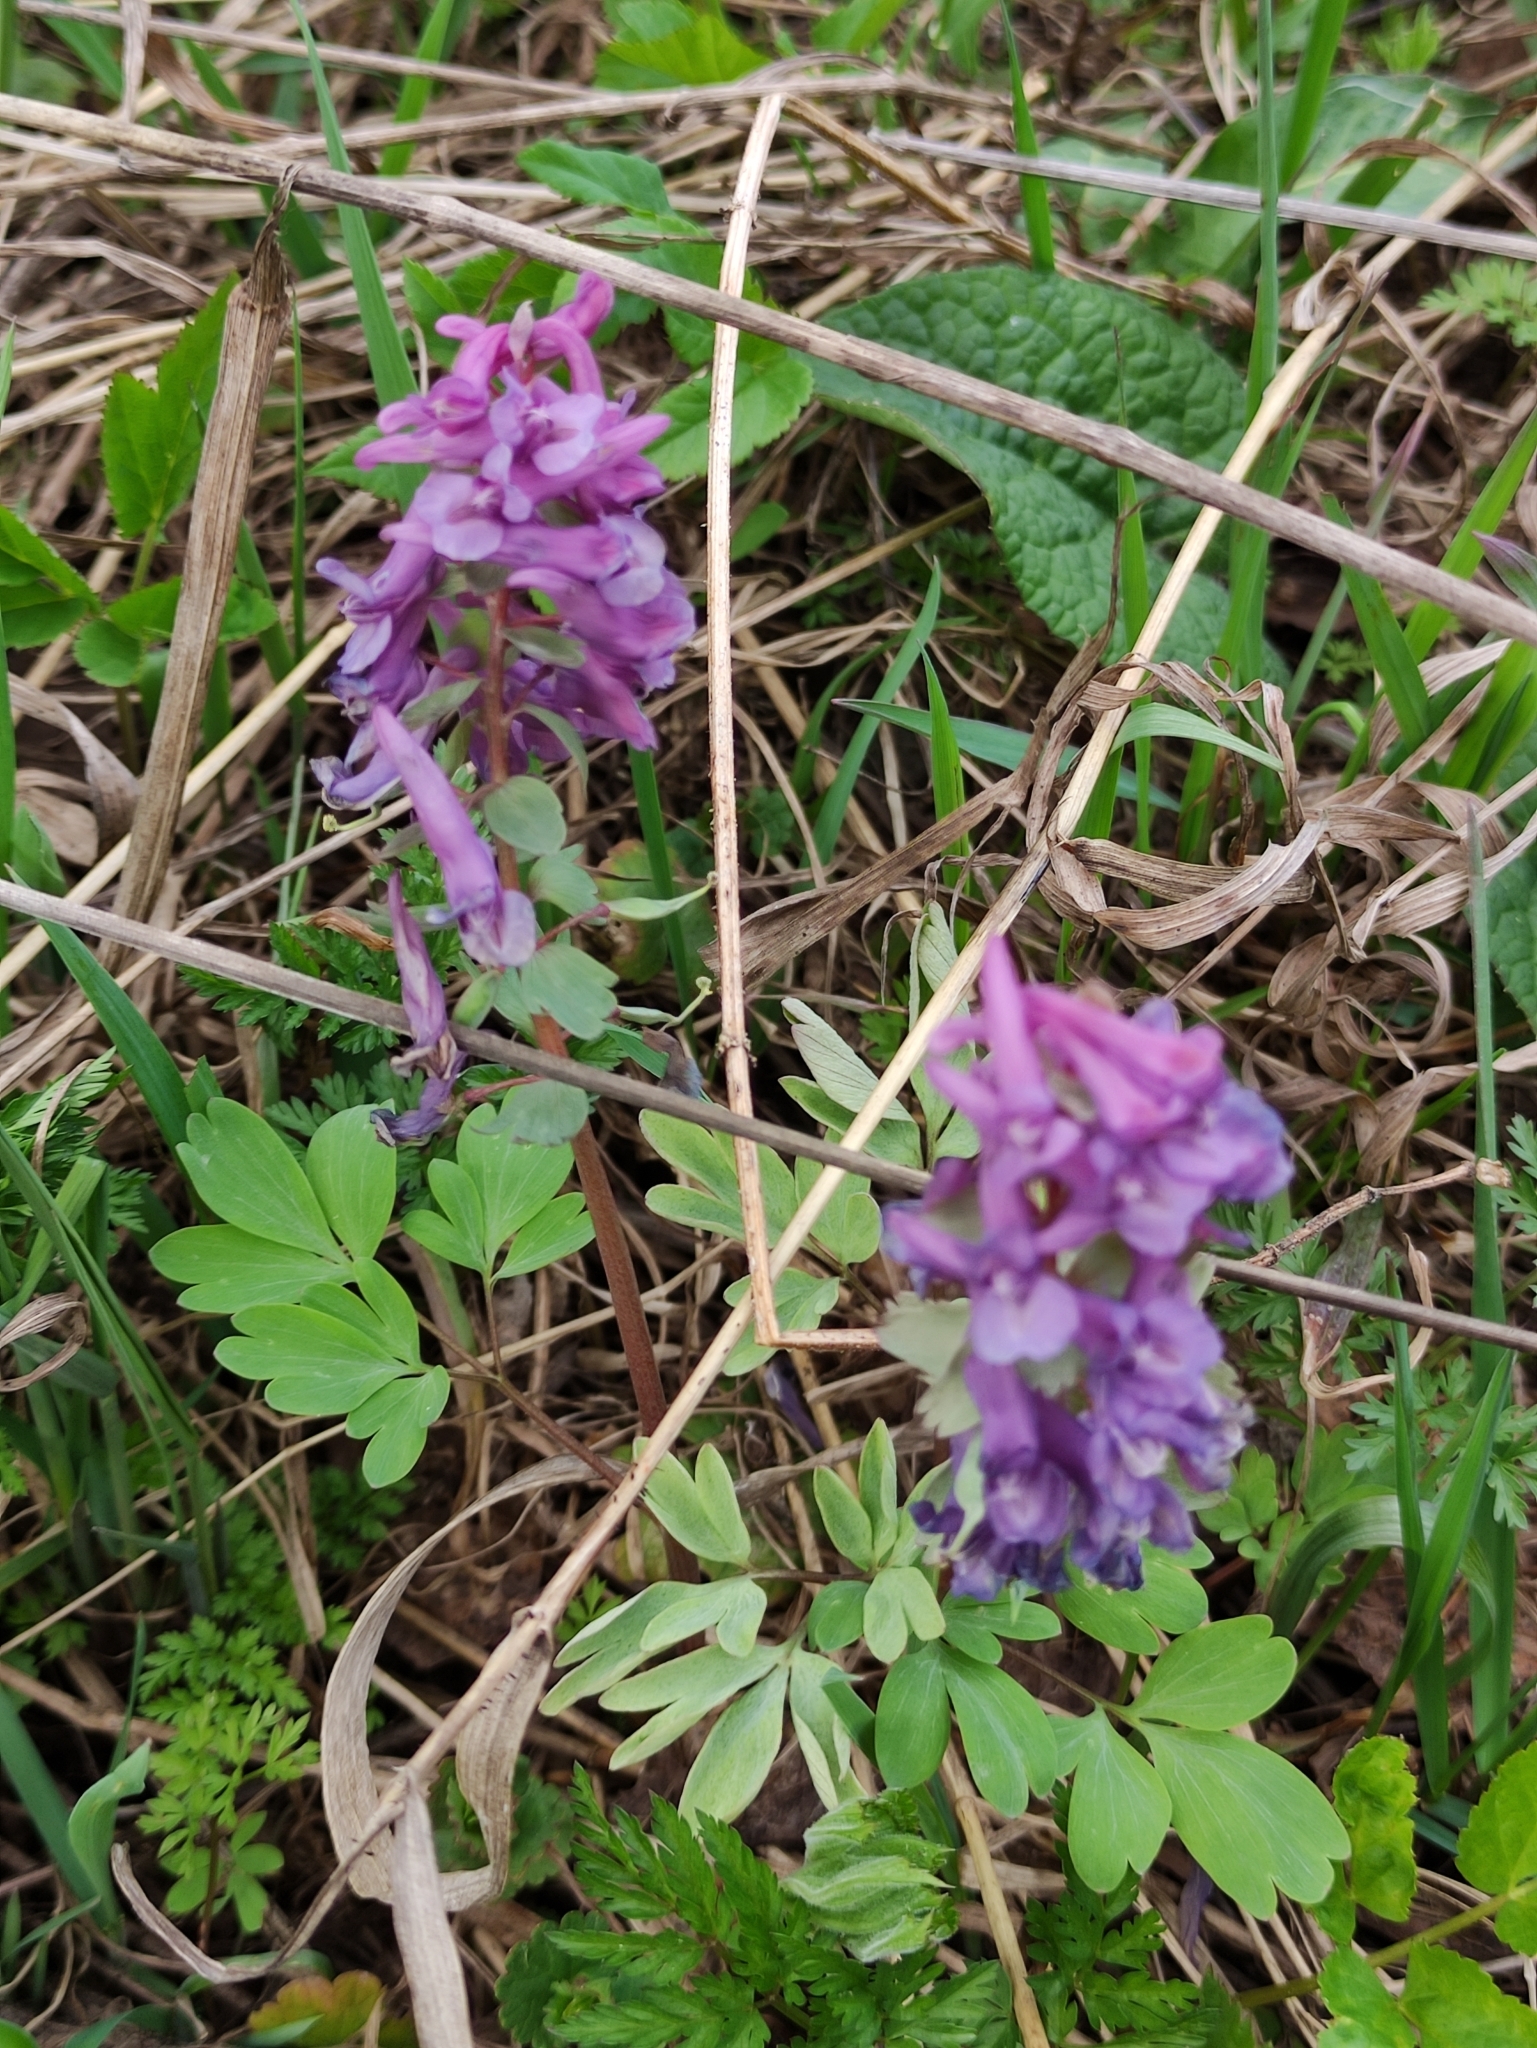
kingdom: Plantae
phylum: Tracheophyta
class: Magnoliopsida
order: Ranunculales
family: Papaveraceae
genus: Corydalis
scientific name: Corydalis solida
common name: Bird-in-a-bush
